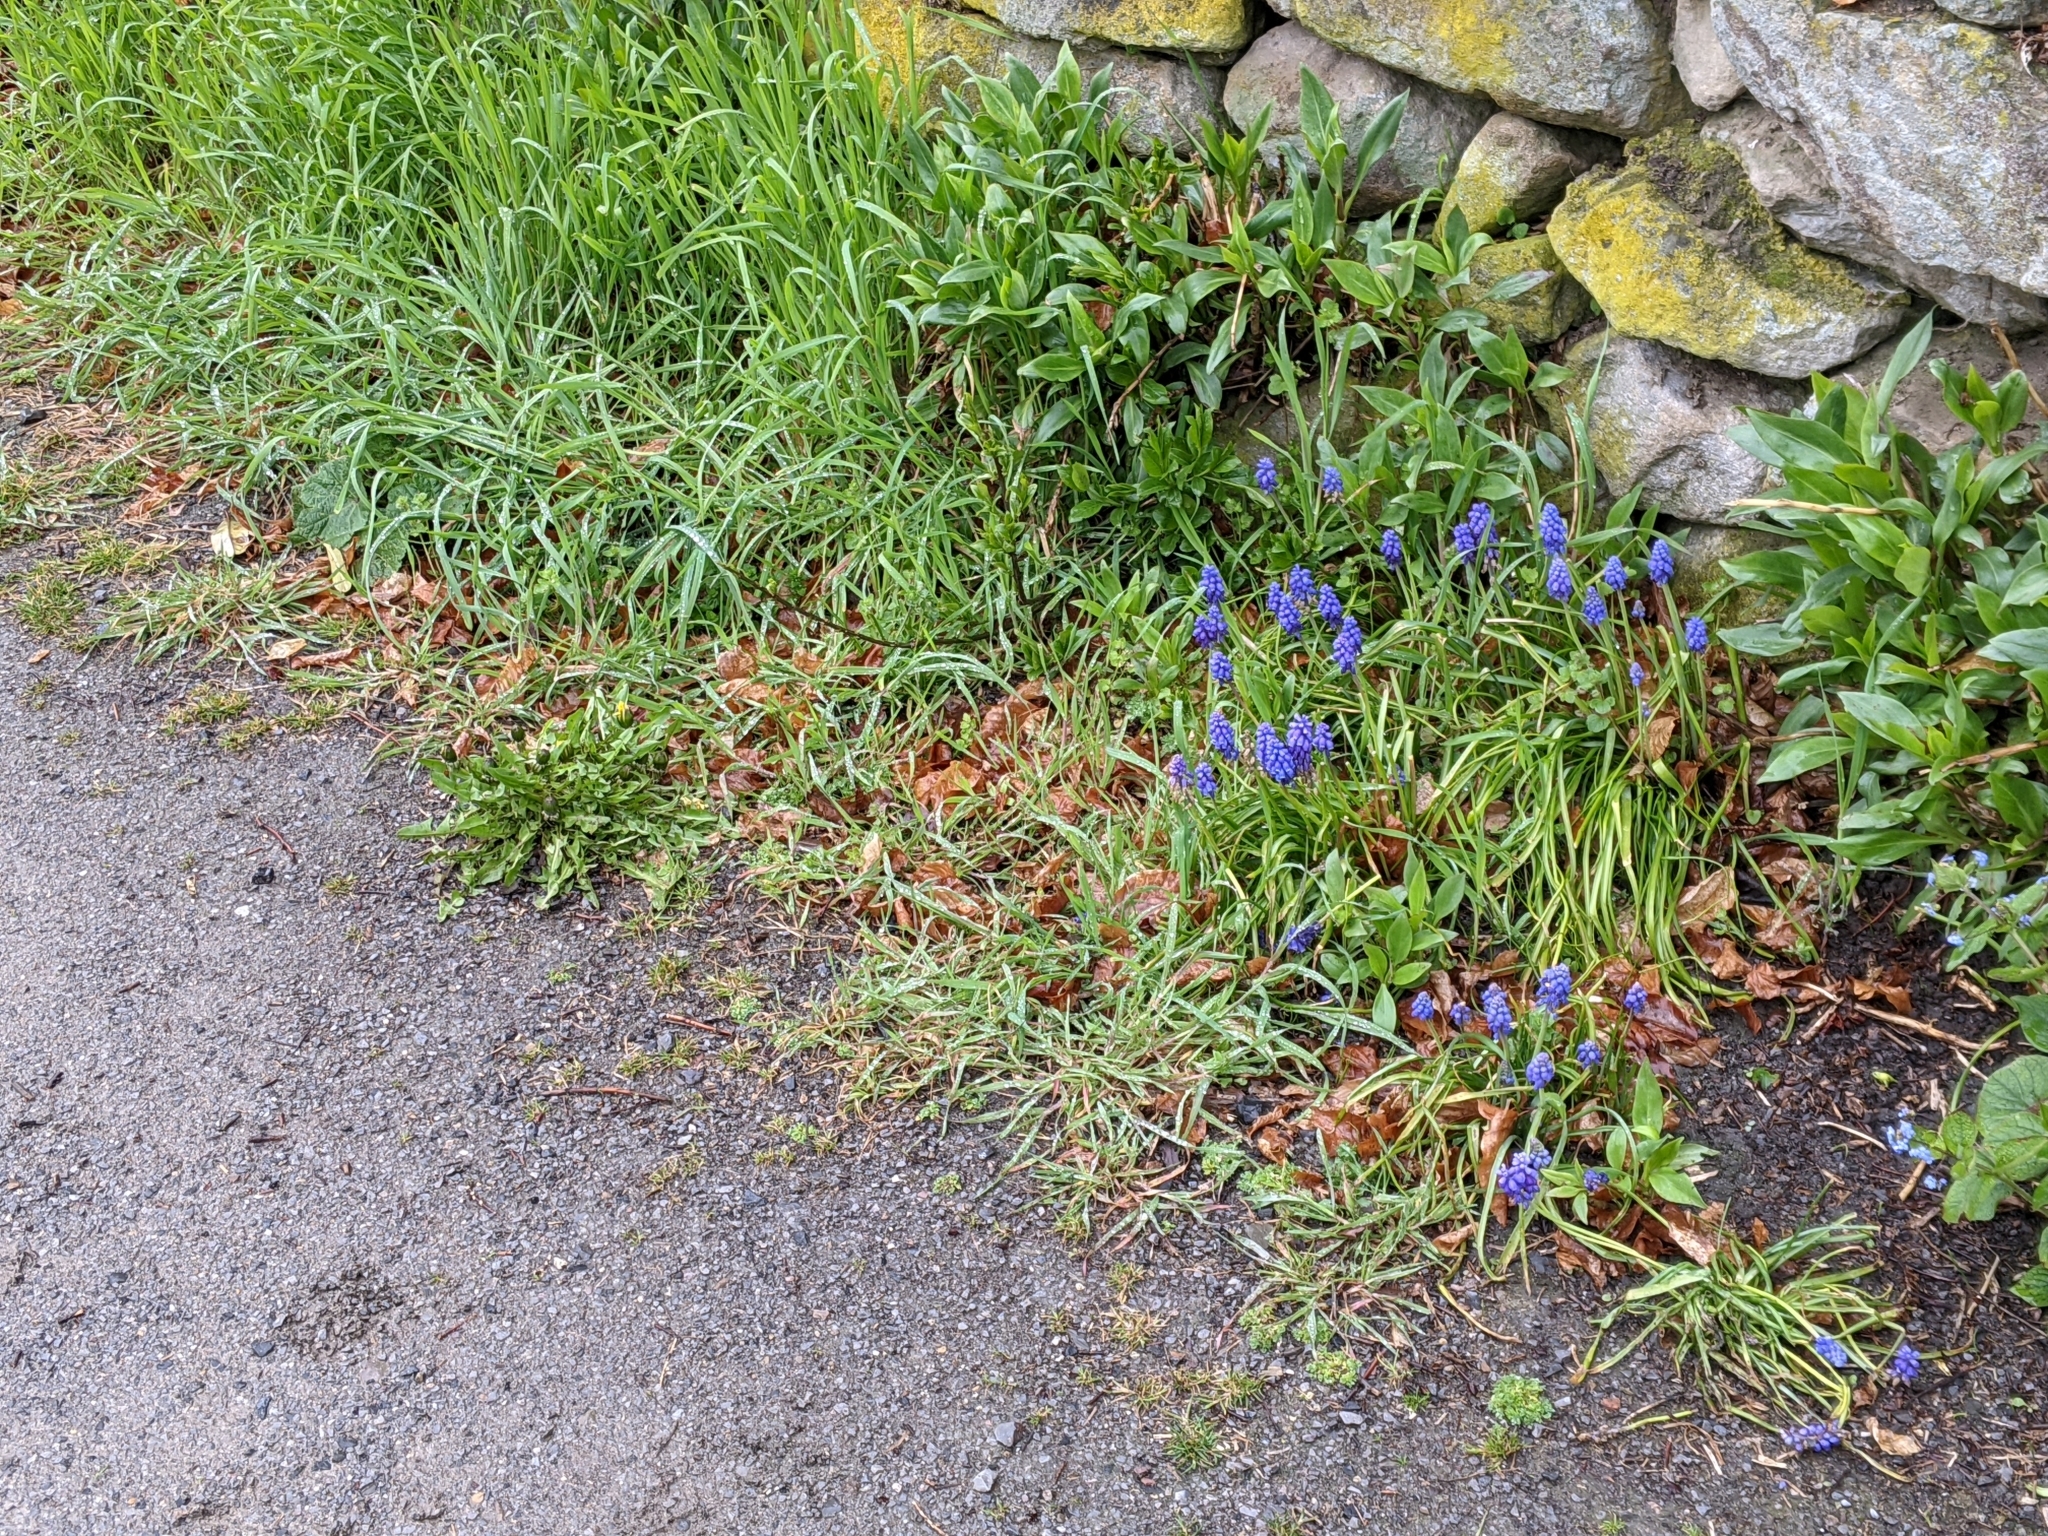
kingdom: Plantae
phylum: Tracheophyta
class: Liliopsida
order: Asparagales
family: Asparagaceae
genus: Muscari
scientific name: Muscari armeniacum
